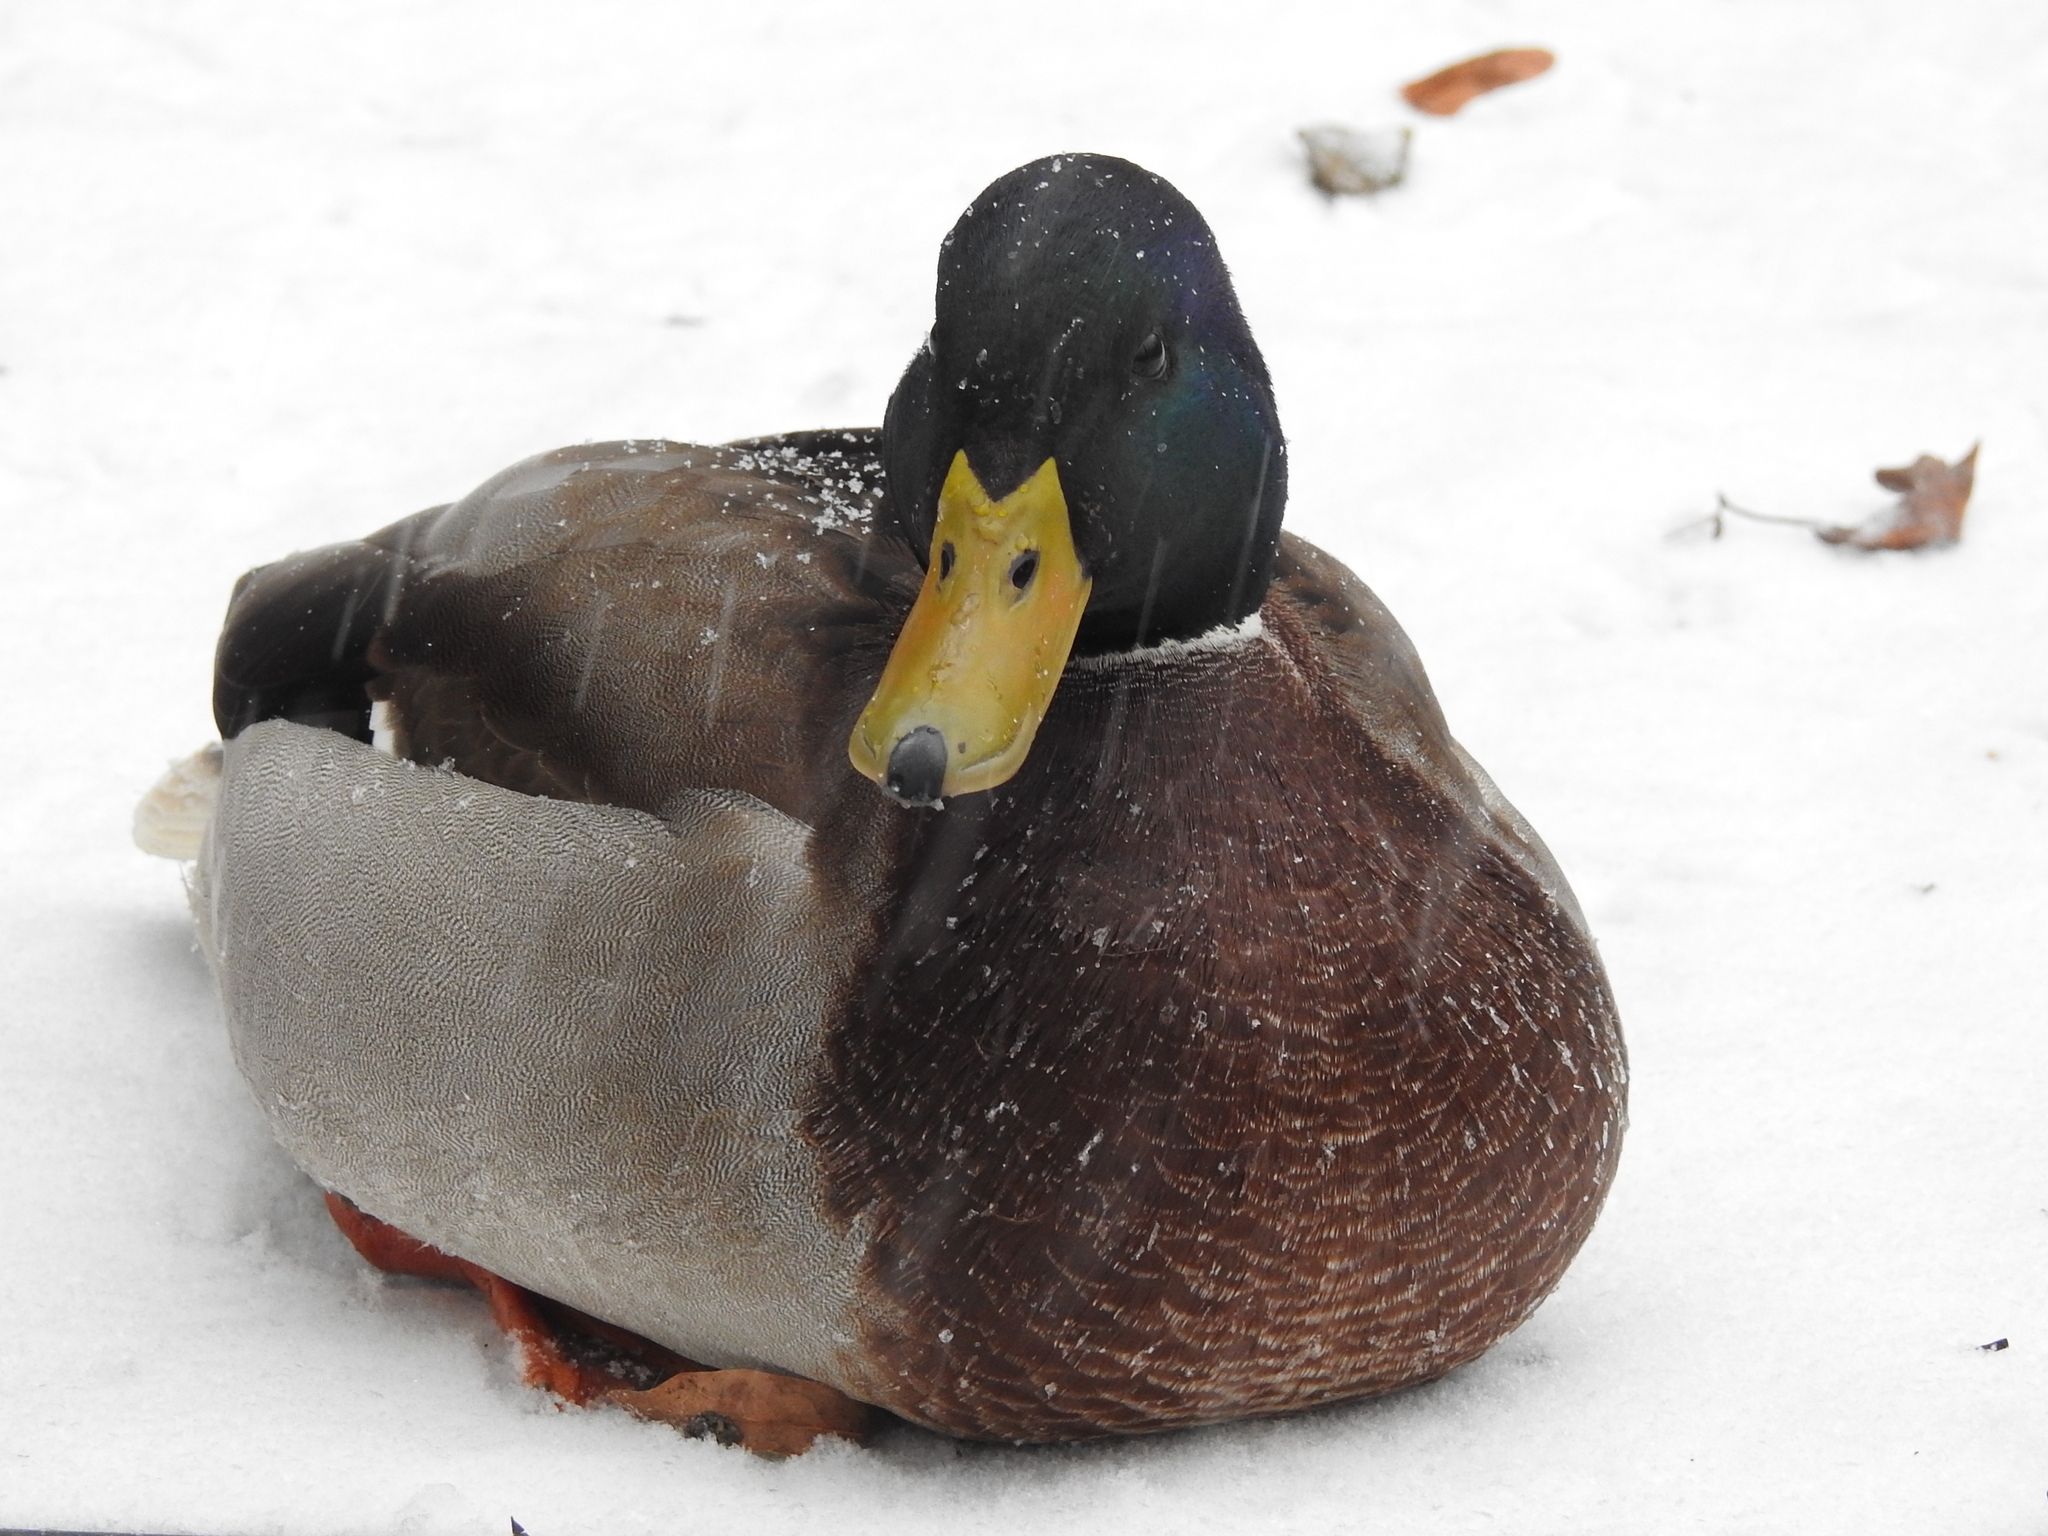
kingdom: Animalia
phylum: Chordata
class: Aves
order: Anseriformes
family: Anatidae
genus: Anas
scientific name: Anas platyrhynchos
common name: Mallard
